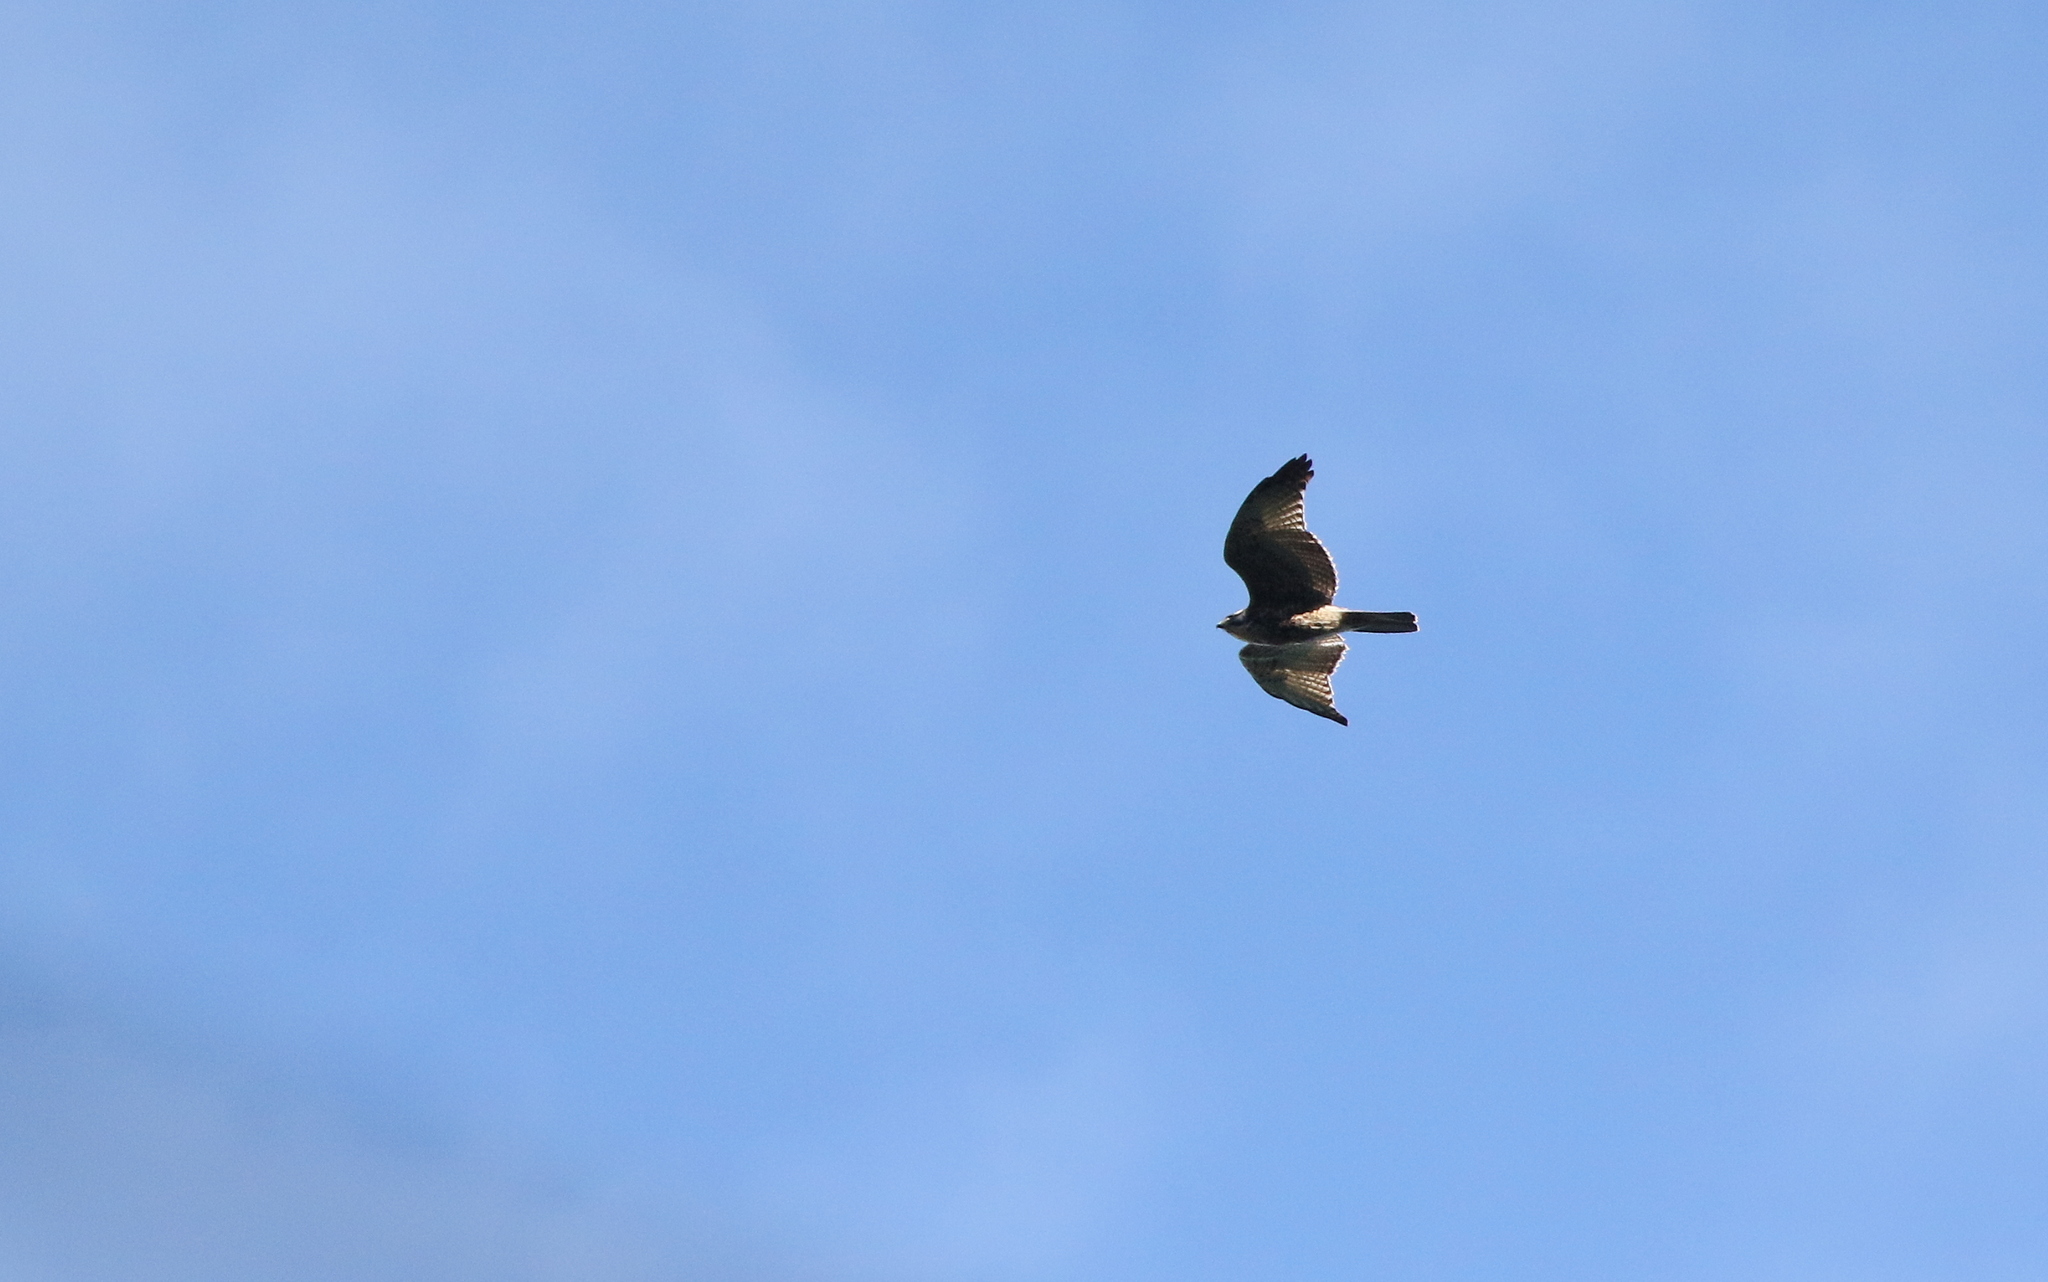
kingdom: Animalia
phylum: Chordata
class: Aves
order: Accipitriformes
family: Accipitridae
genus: Buteo
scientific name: Buteo polyosoma
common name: Variable hawk
